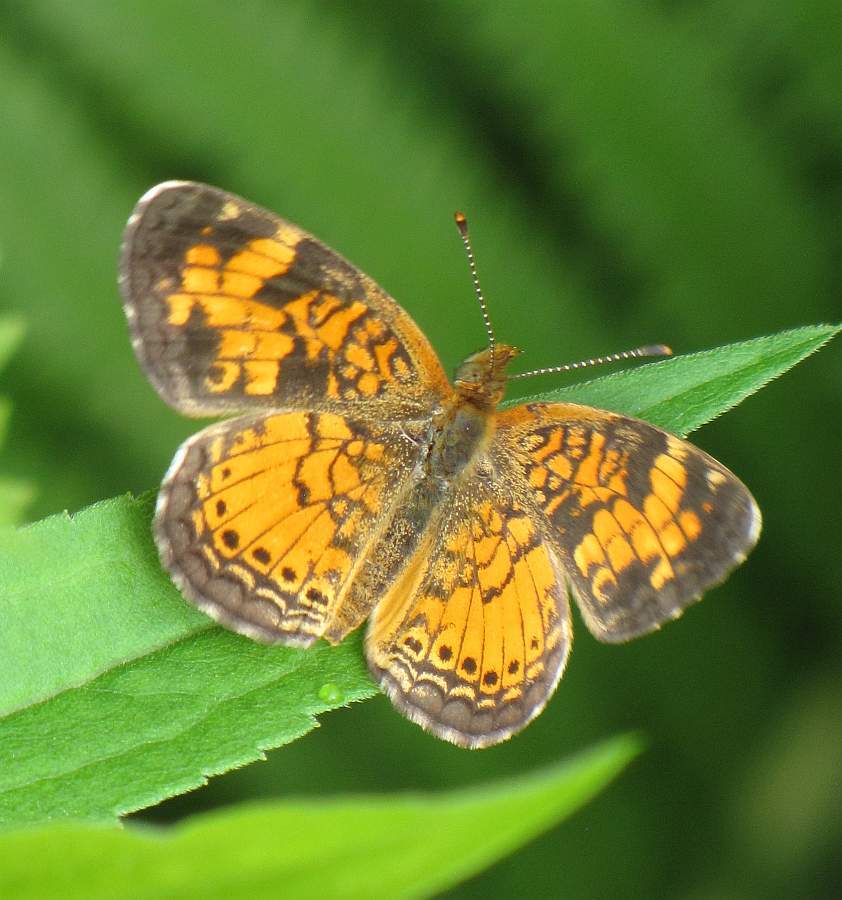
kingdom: Animalia
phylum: Arthropoda
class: Insecta
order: Lepidoptera
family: Nymphalidae
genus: Phyciodes
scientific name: Phyciodes tharos
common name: Pearl crescent
